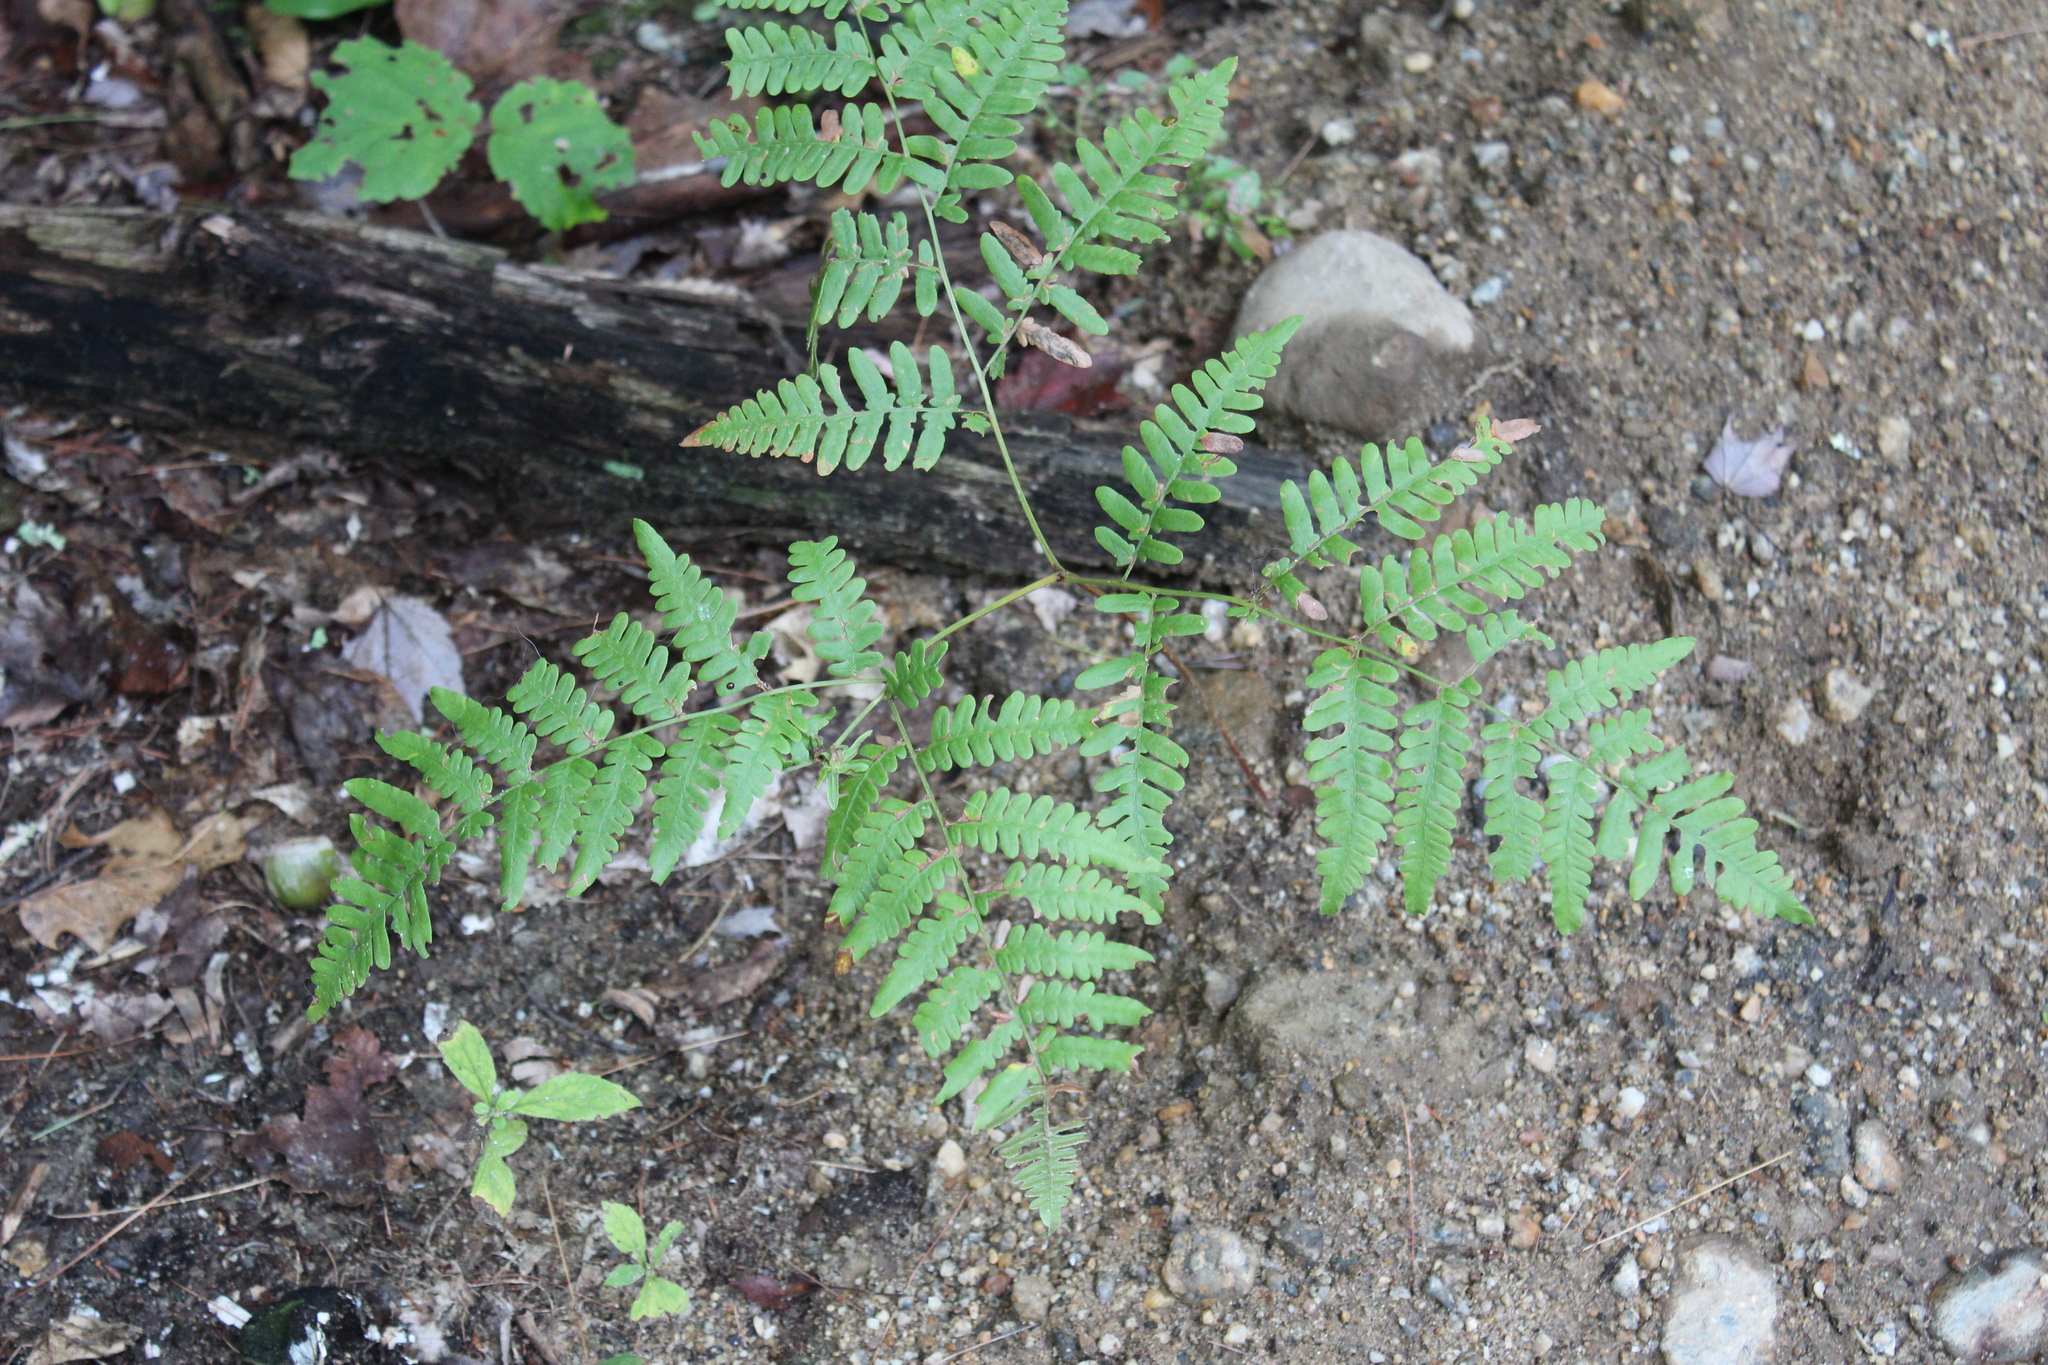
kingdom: Plantae
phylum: Tracheophyta
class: Polypodiopsida
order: Polypodiales
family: Dennstaedtiaceae
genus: Pteridium
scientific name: Pteridium aquilinum
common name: Bracken
